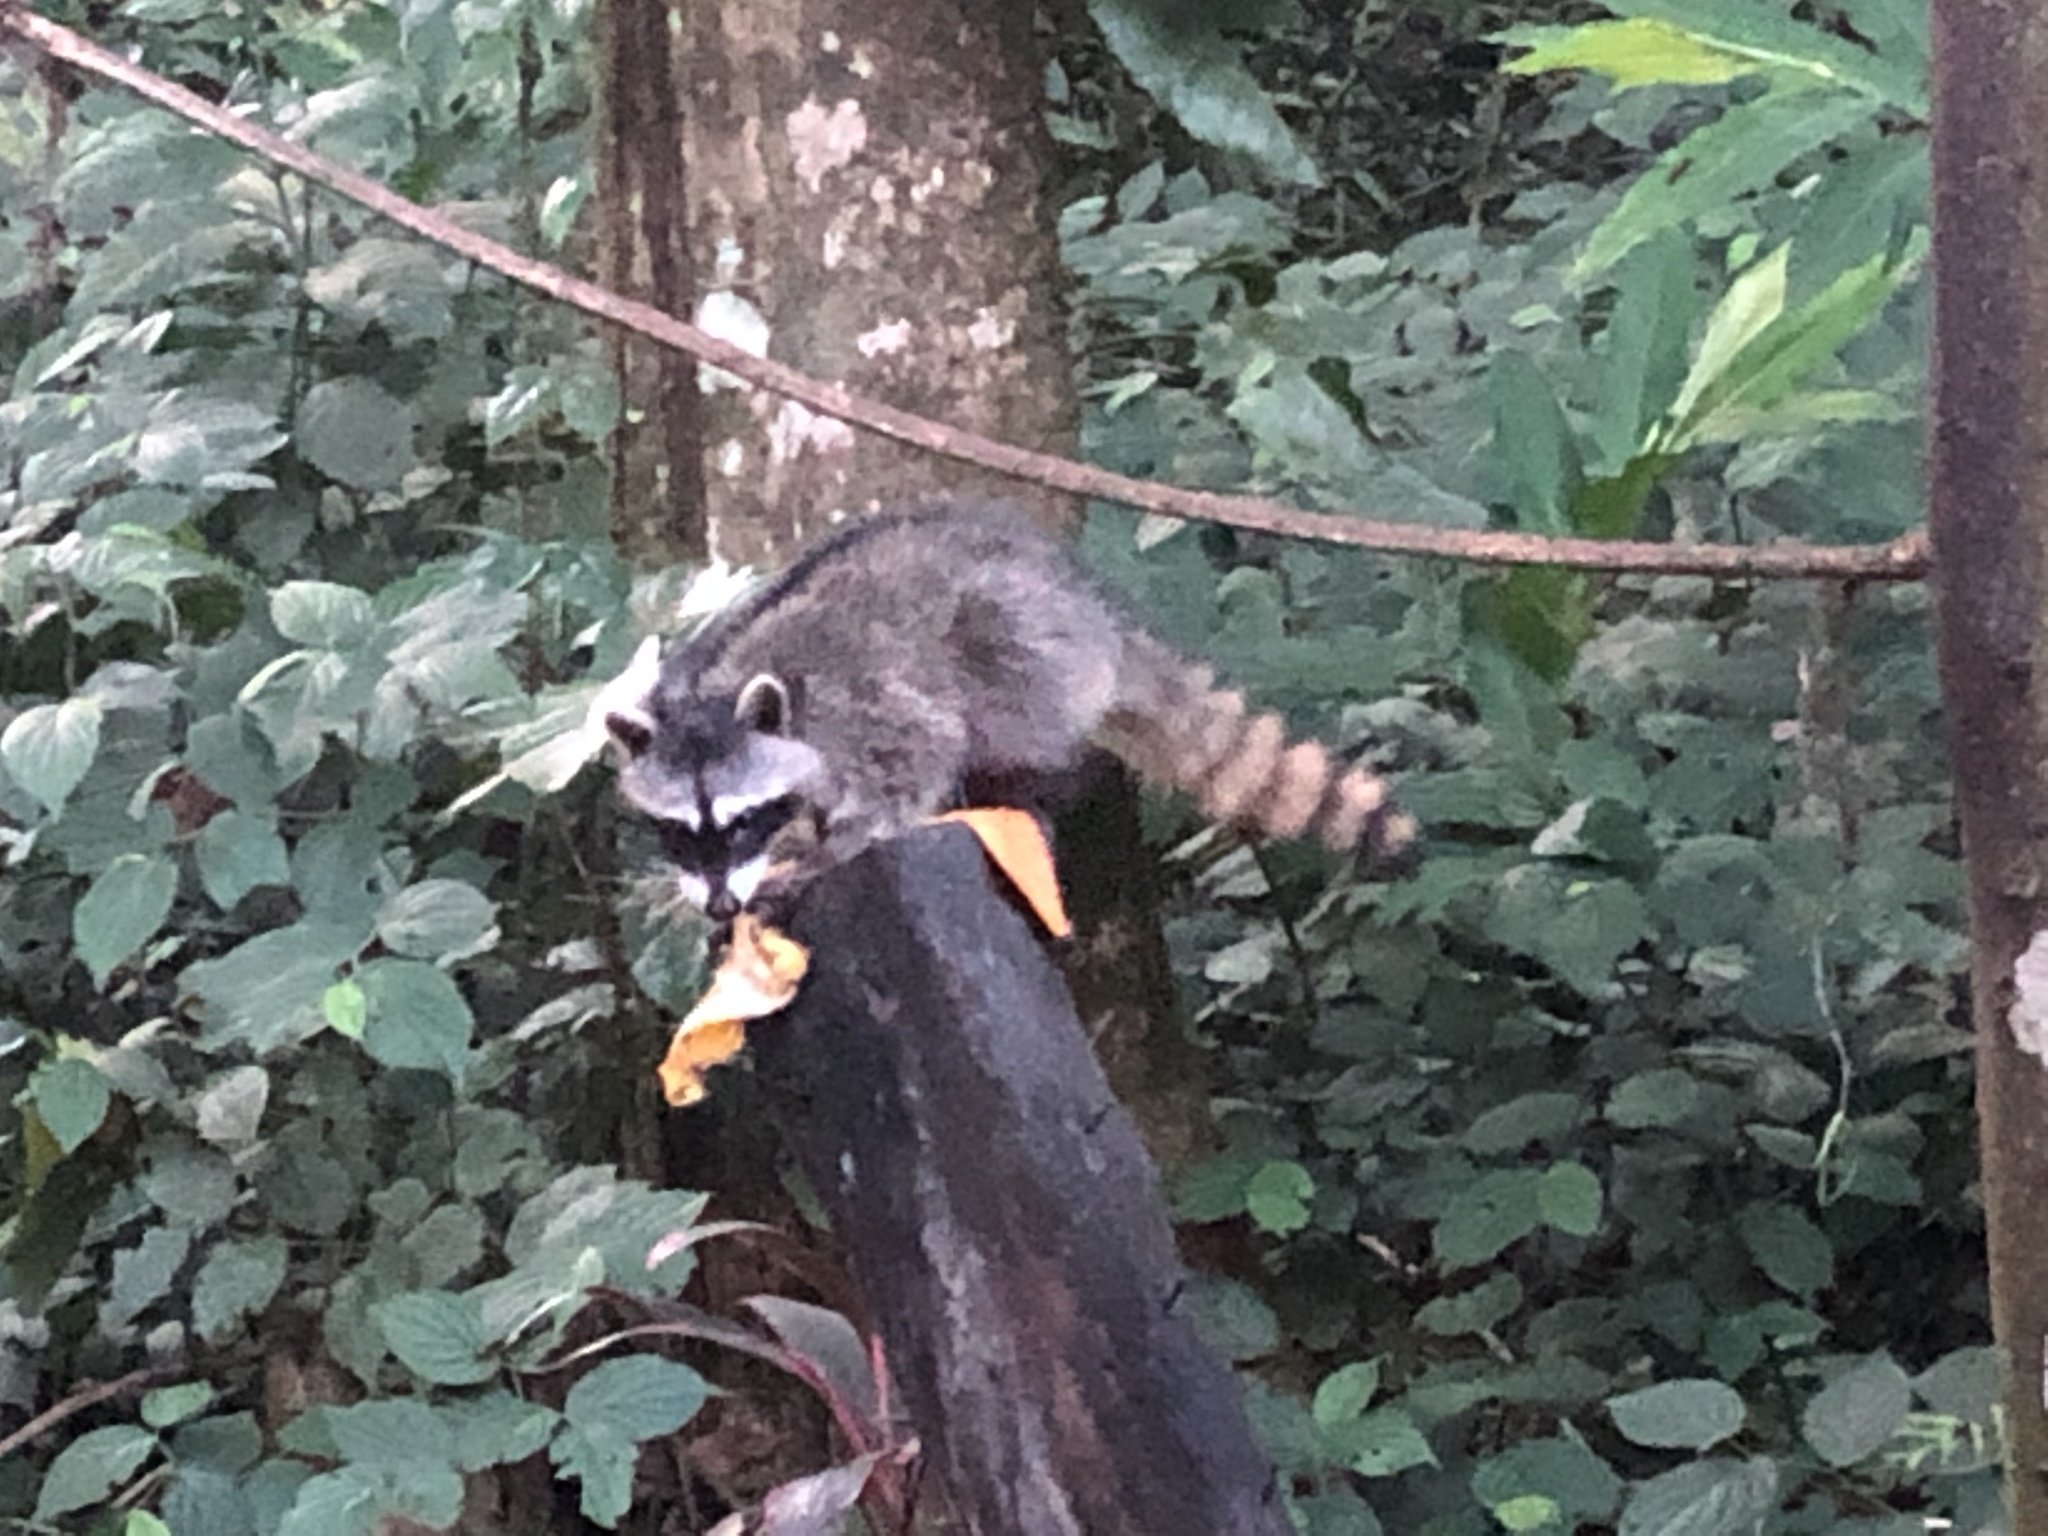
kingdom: Animalia
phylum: Chordata
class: Mammalia
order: Carnivora
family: Procyonidae
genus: Procyon
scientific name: Procyon lotor
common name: Raccoon
